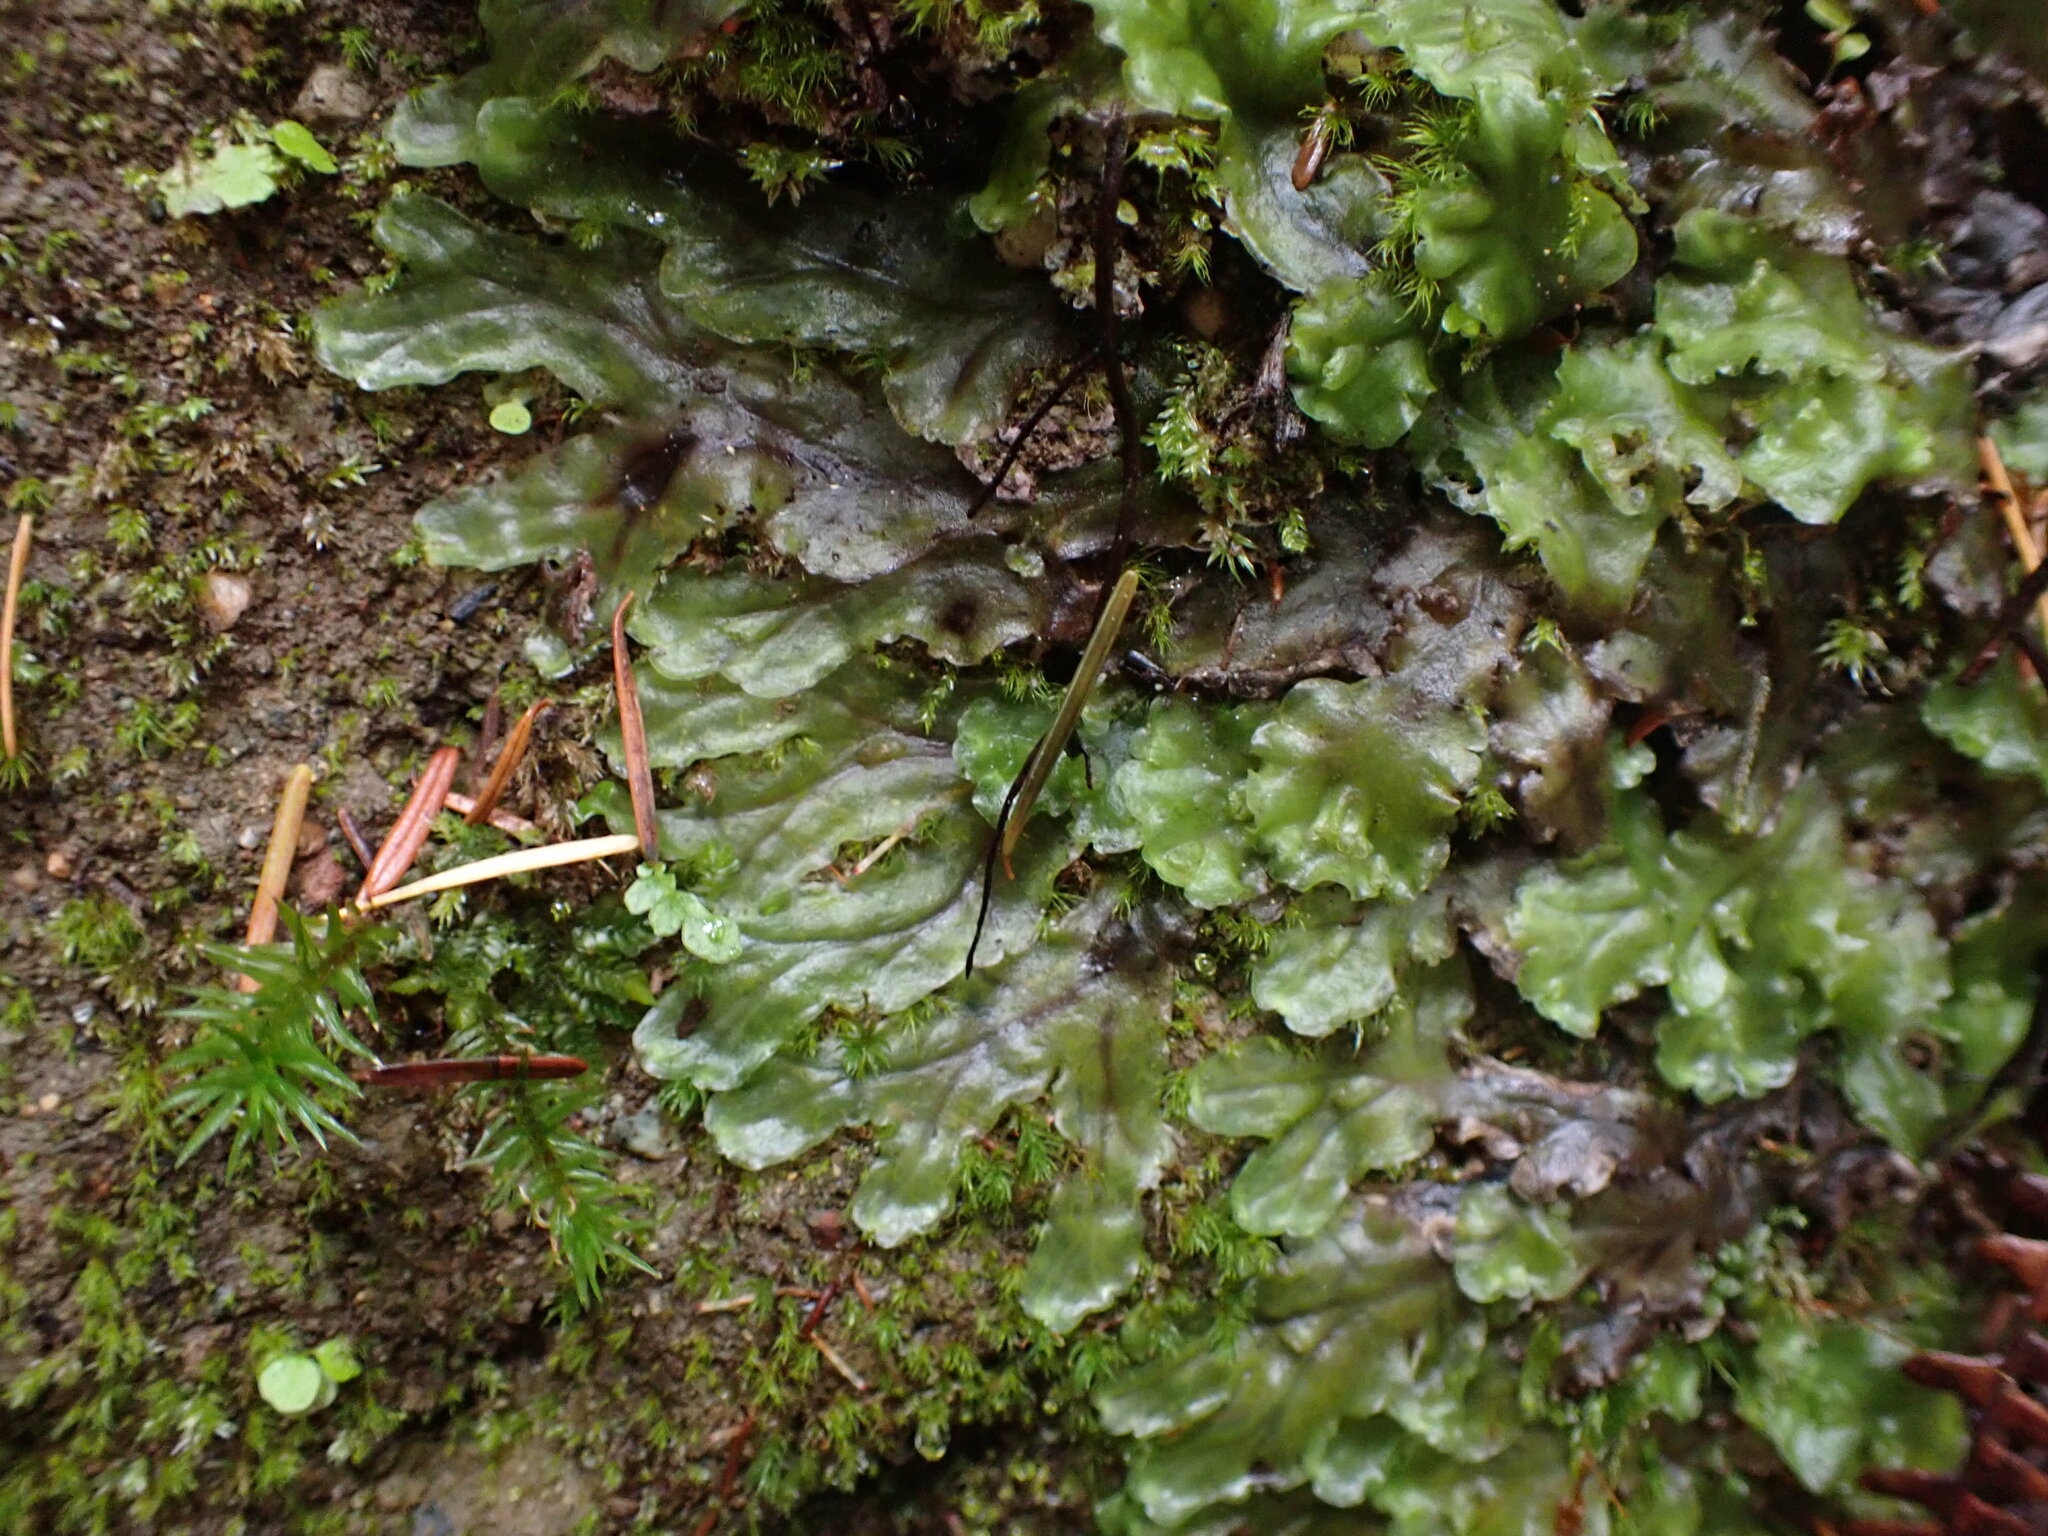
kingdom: Plantae
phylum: Marchantiophyta
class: Jungermanniopsida
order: Pelliales
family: Pelliaceae
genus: Pellia
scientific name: Pellia neesiana
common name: Nees  pellia
